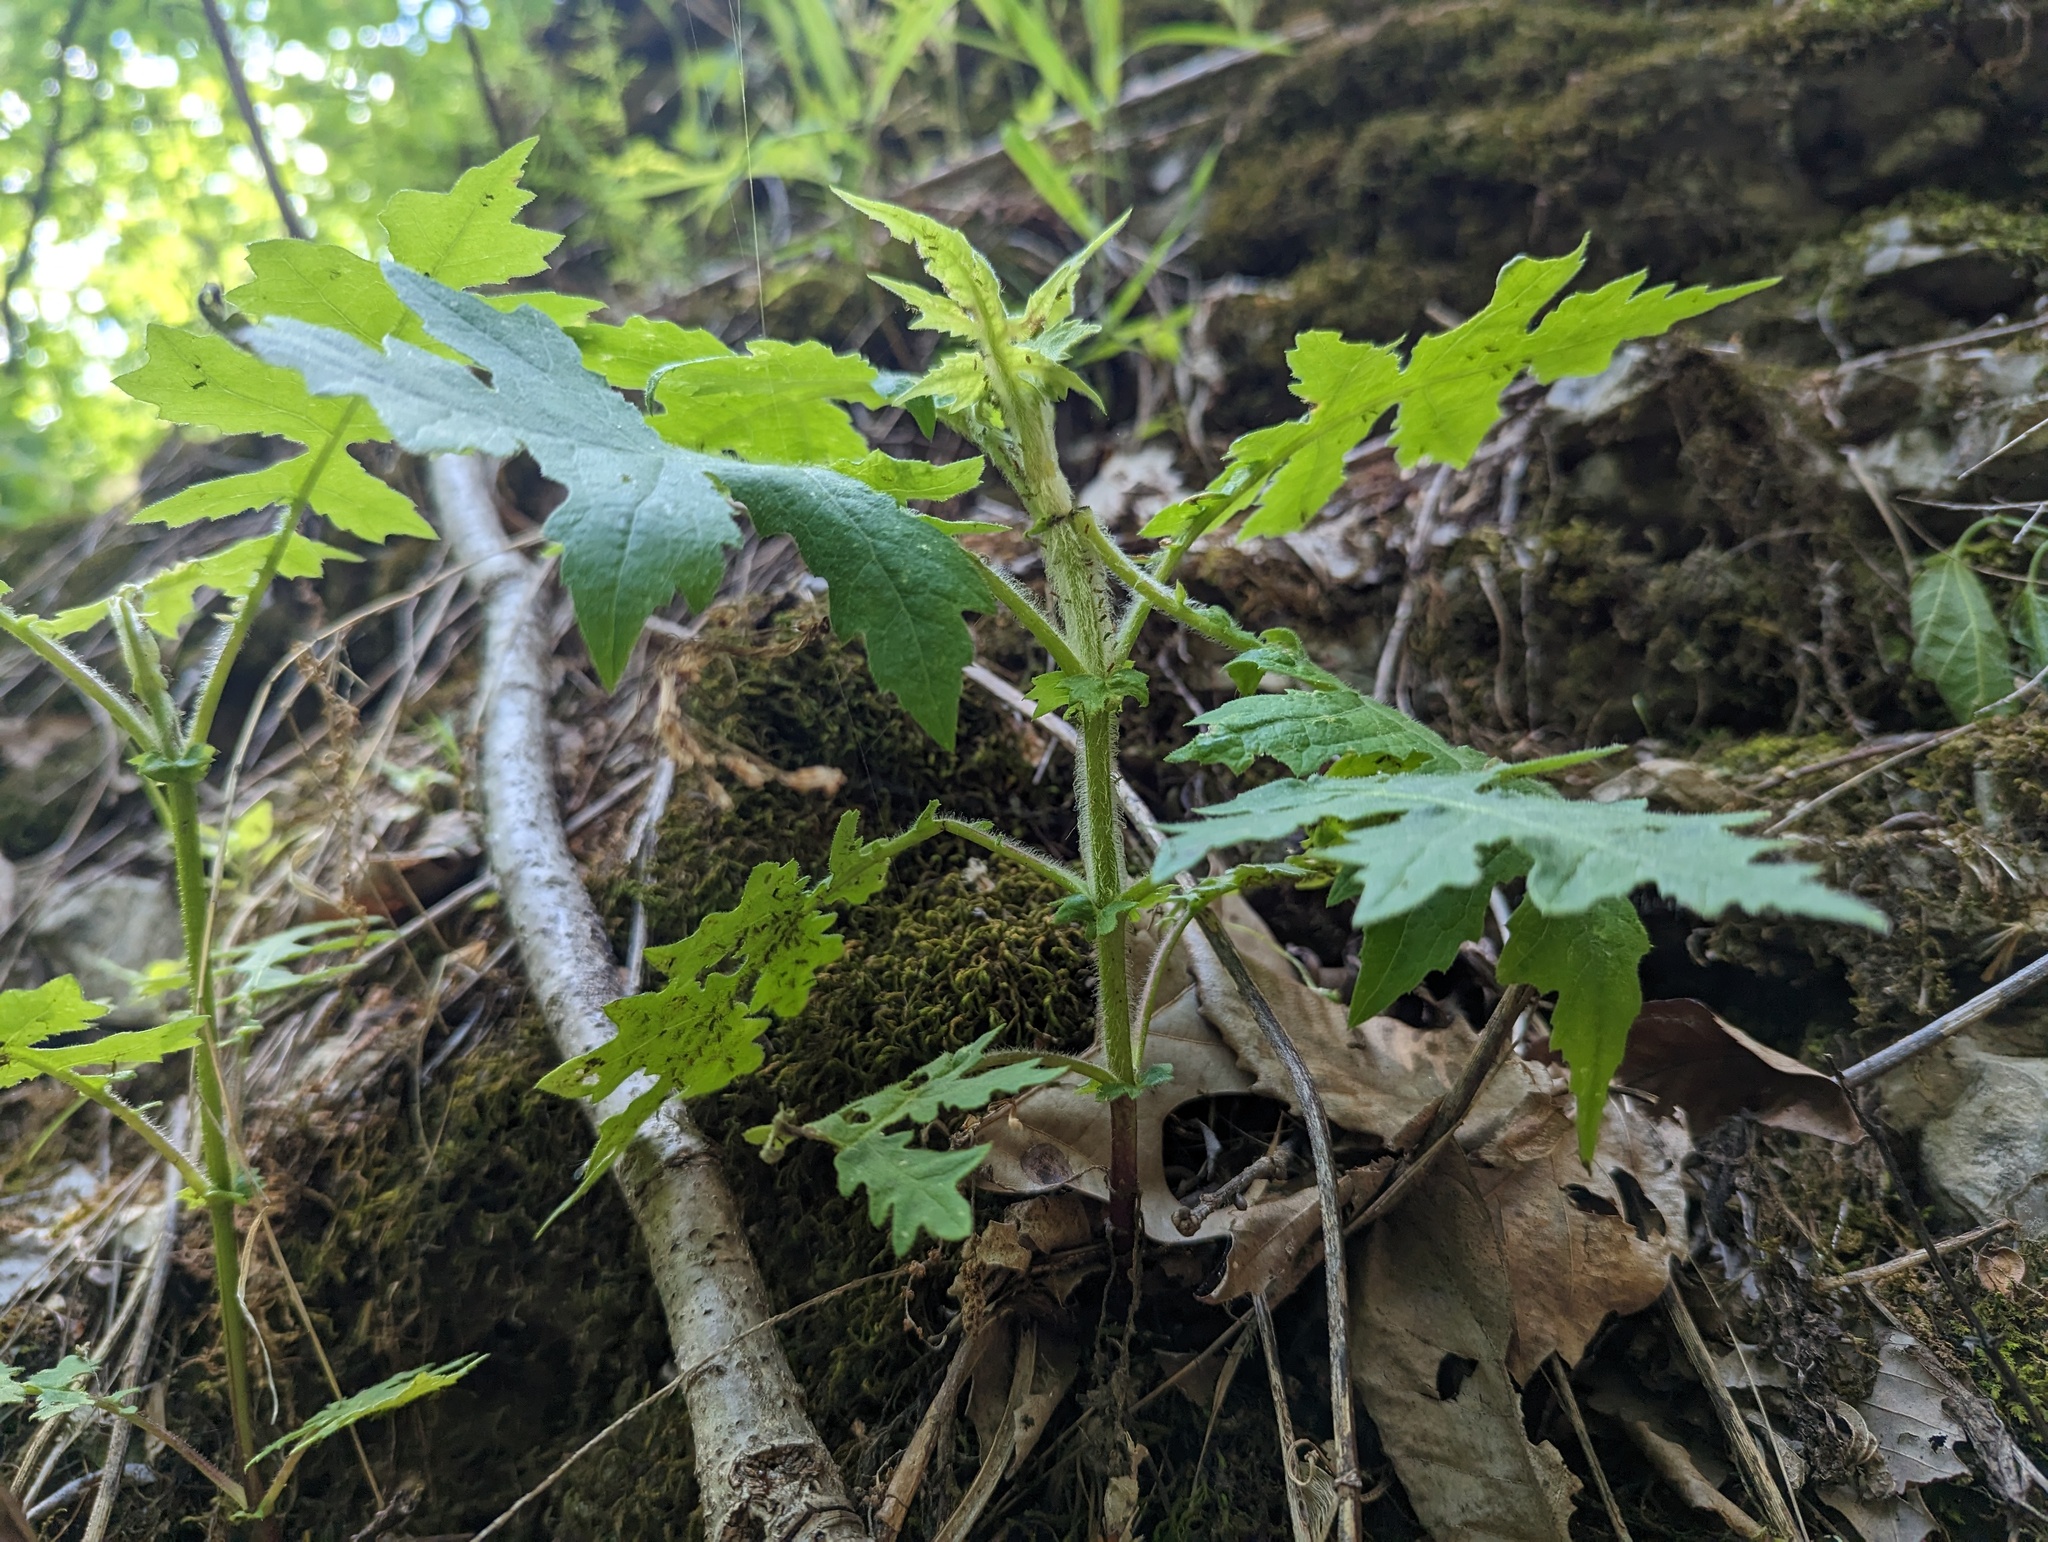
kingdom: Plantae
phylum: Tracheophyta
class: Magnoliopsida
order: Asterales
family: Asteraceae
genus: Polymnia
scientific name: Polymnia canadensis
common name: Pale-flowered leafcup
